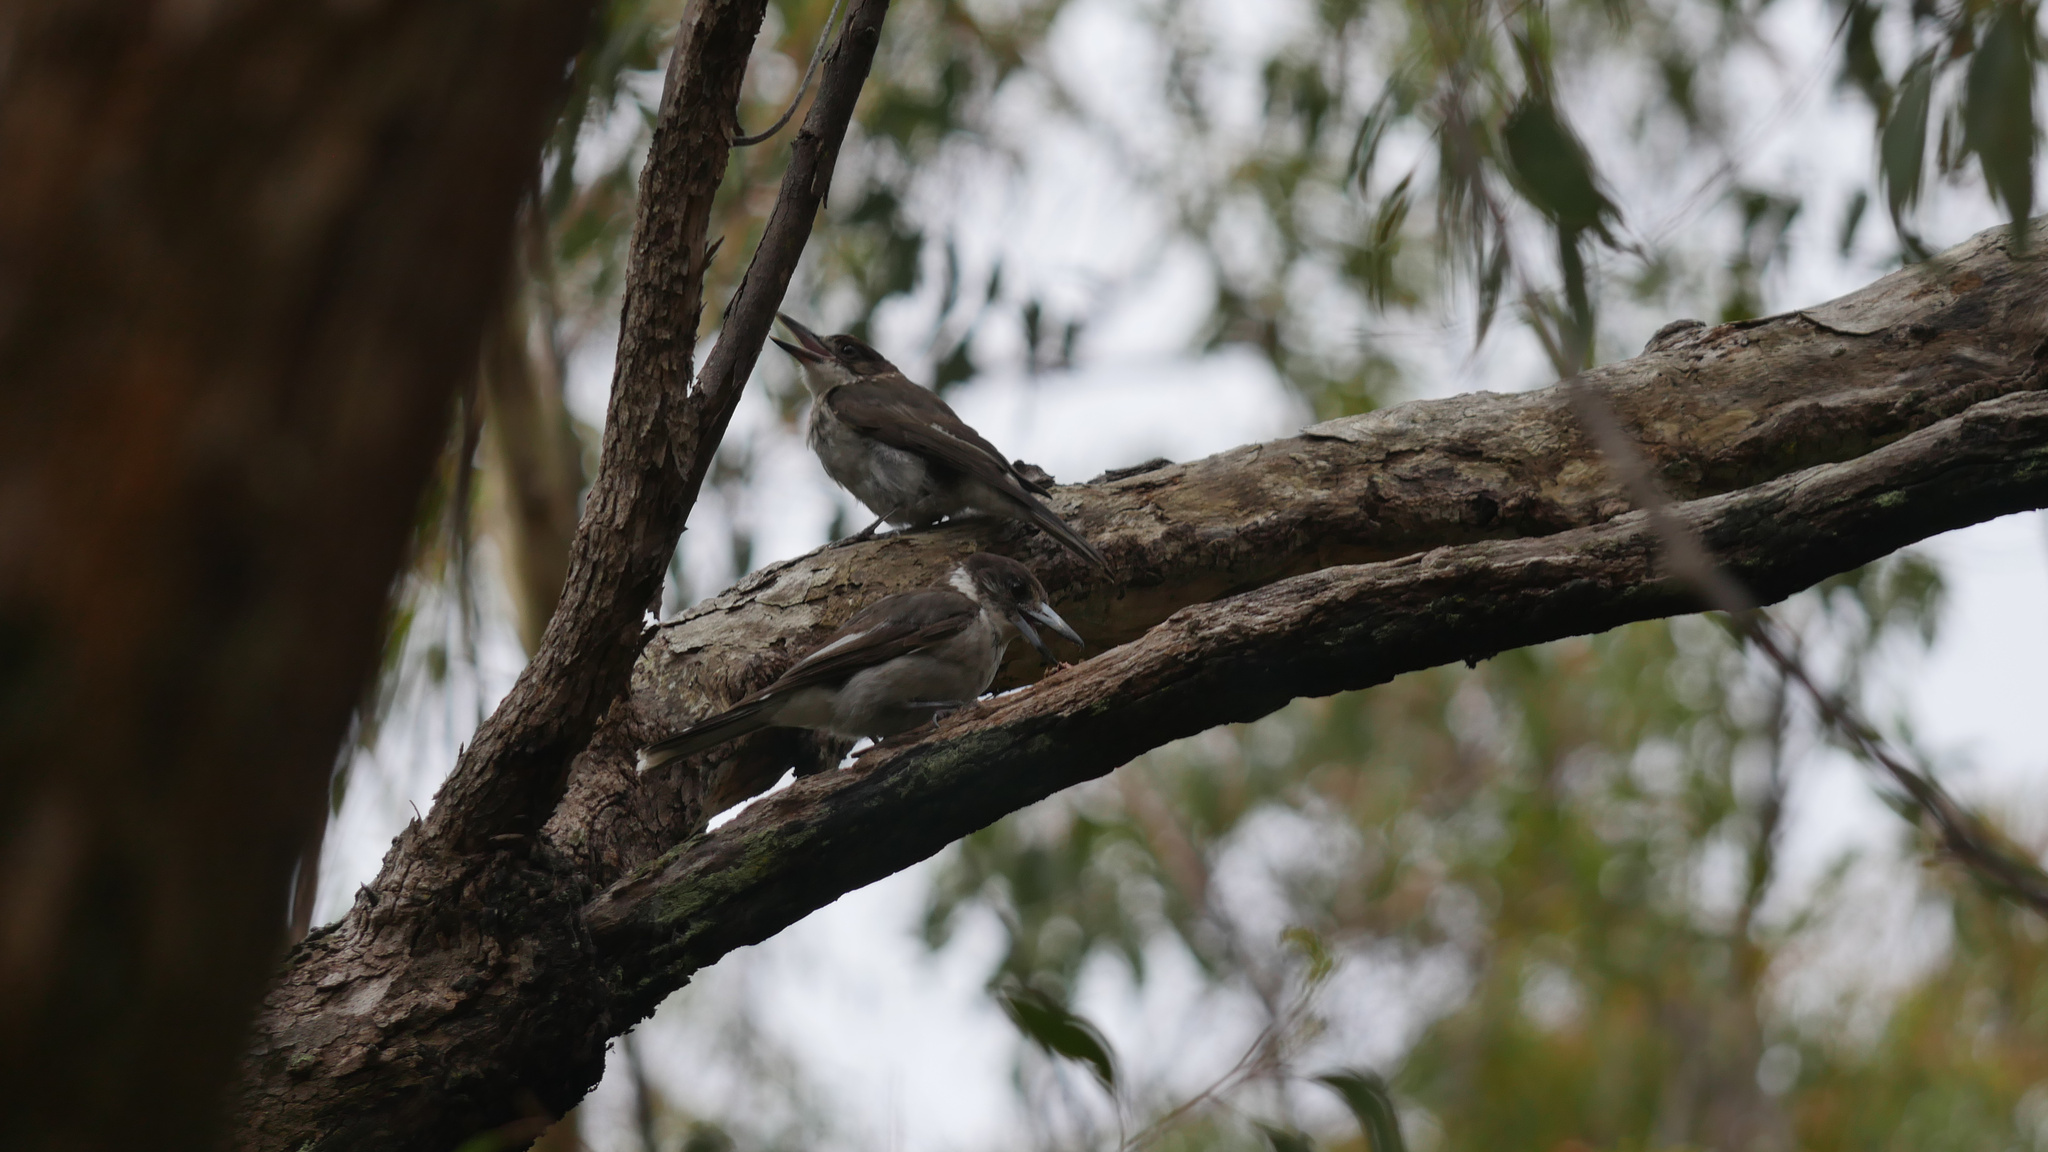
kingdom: Animalia
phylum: Chordata
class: Aves
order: Passeriformes
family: Cracticidae
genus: Cracticus
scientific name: Cracticus torquatus
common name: Grey butcherbird
